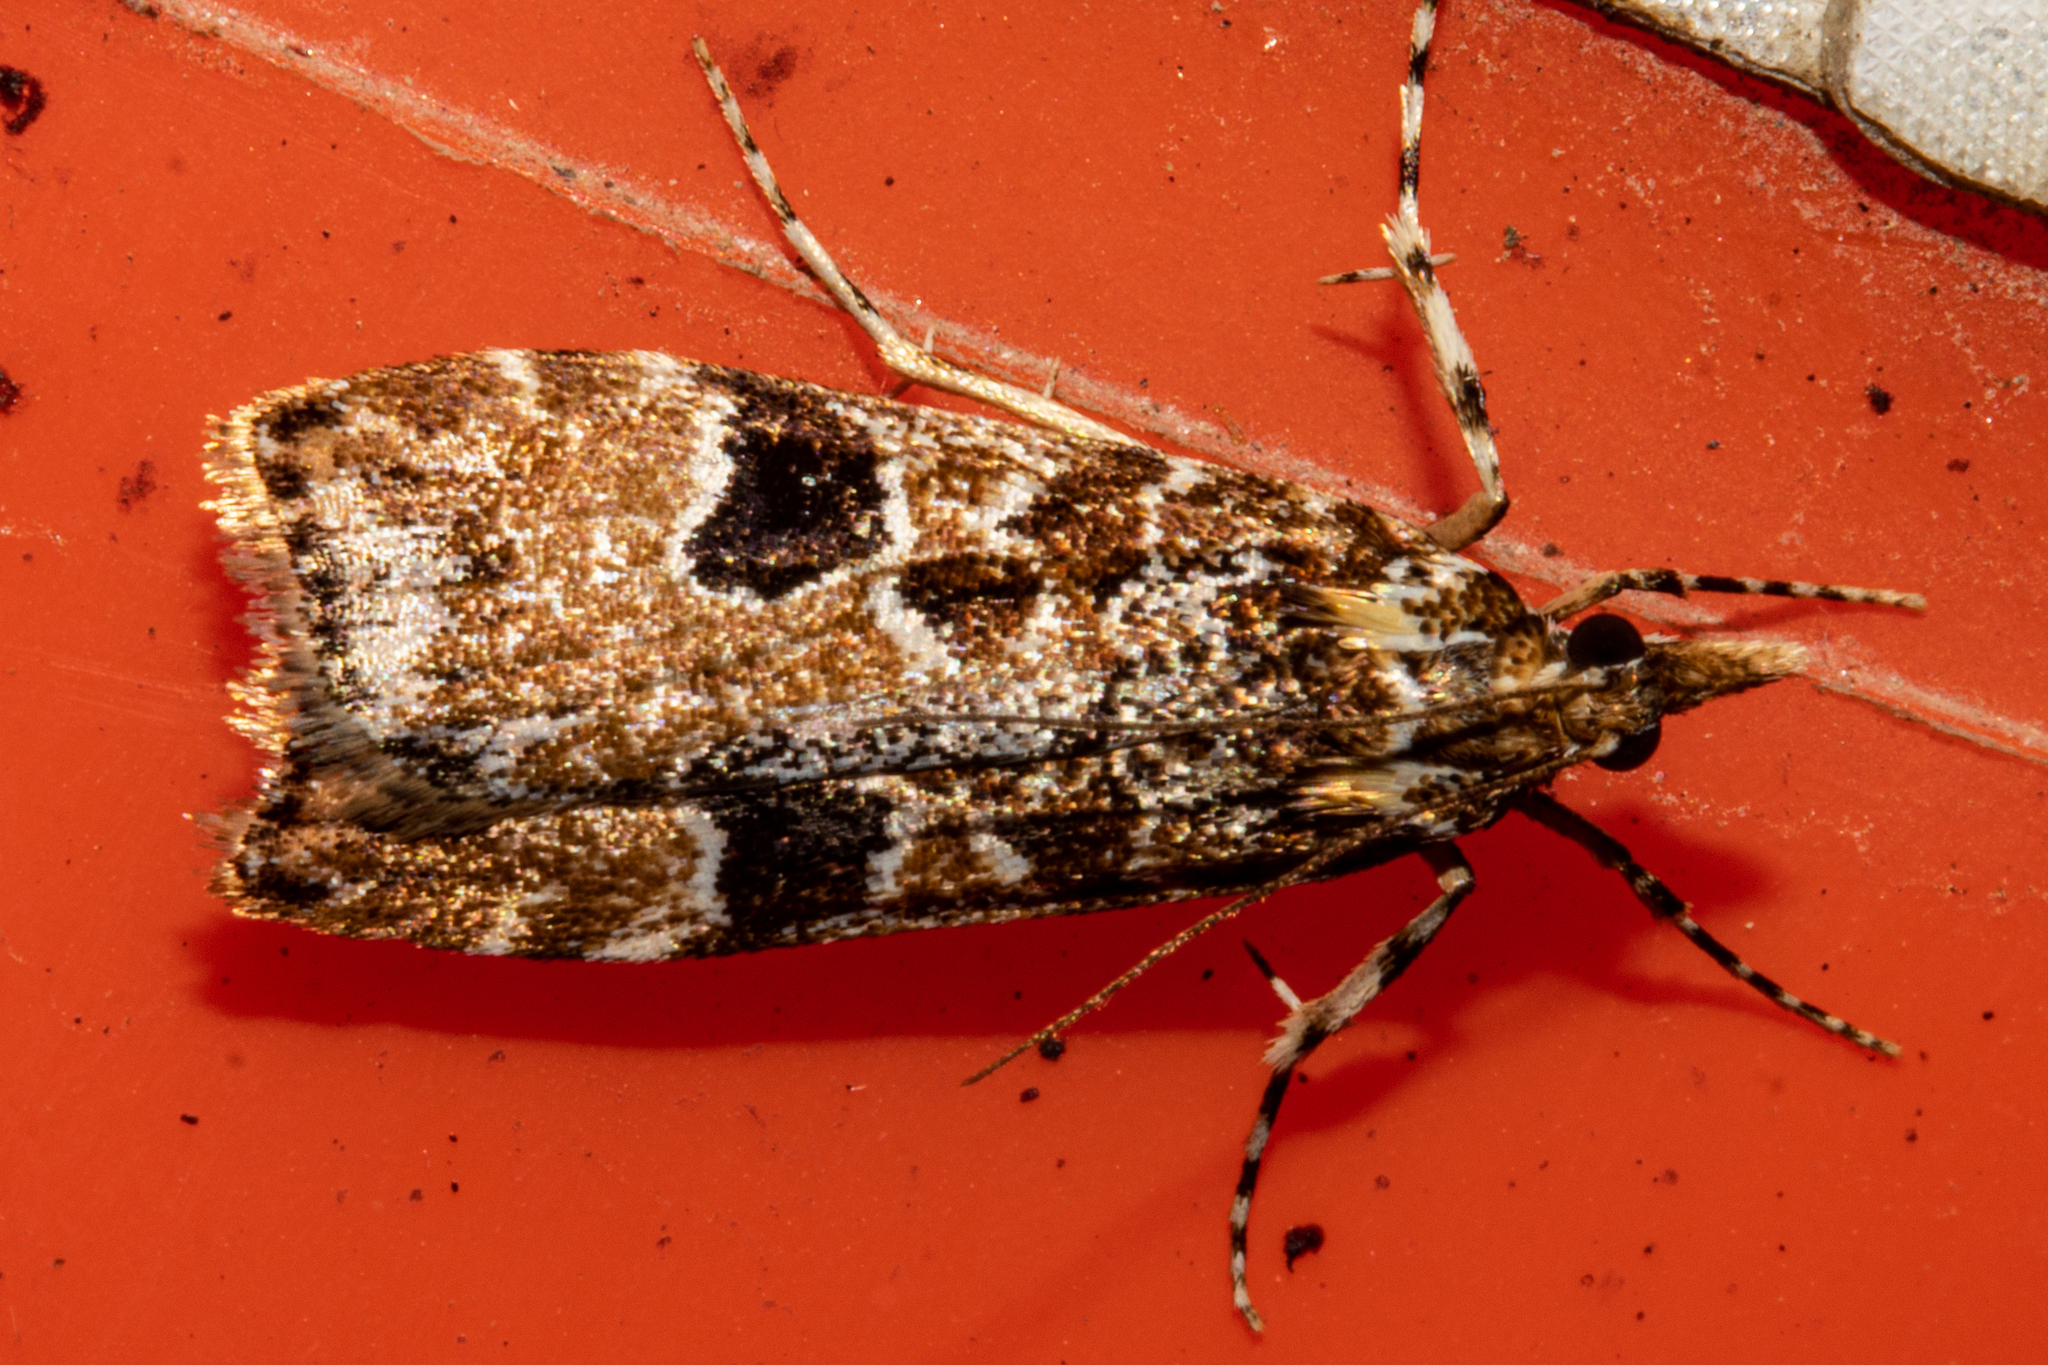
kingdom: Animalia
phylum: Arthropoda
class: Insecta
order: Lepidoptera
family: Crambidae
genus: Scoparia
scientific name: Scoparia ustimacula
